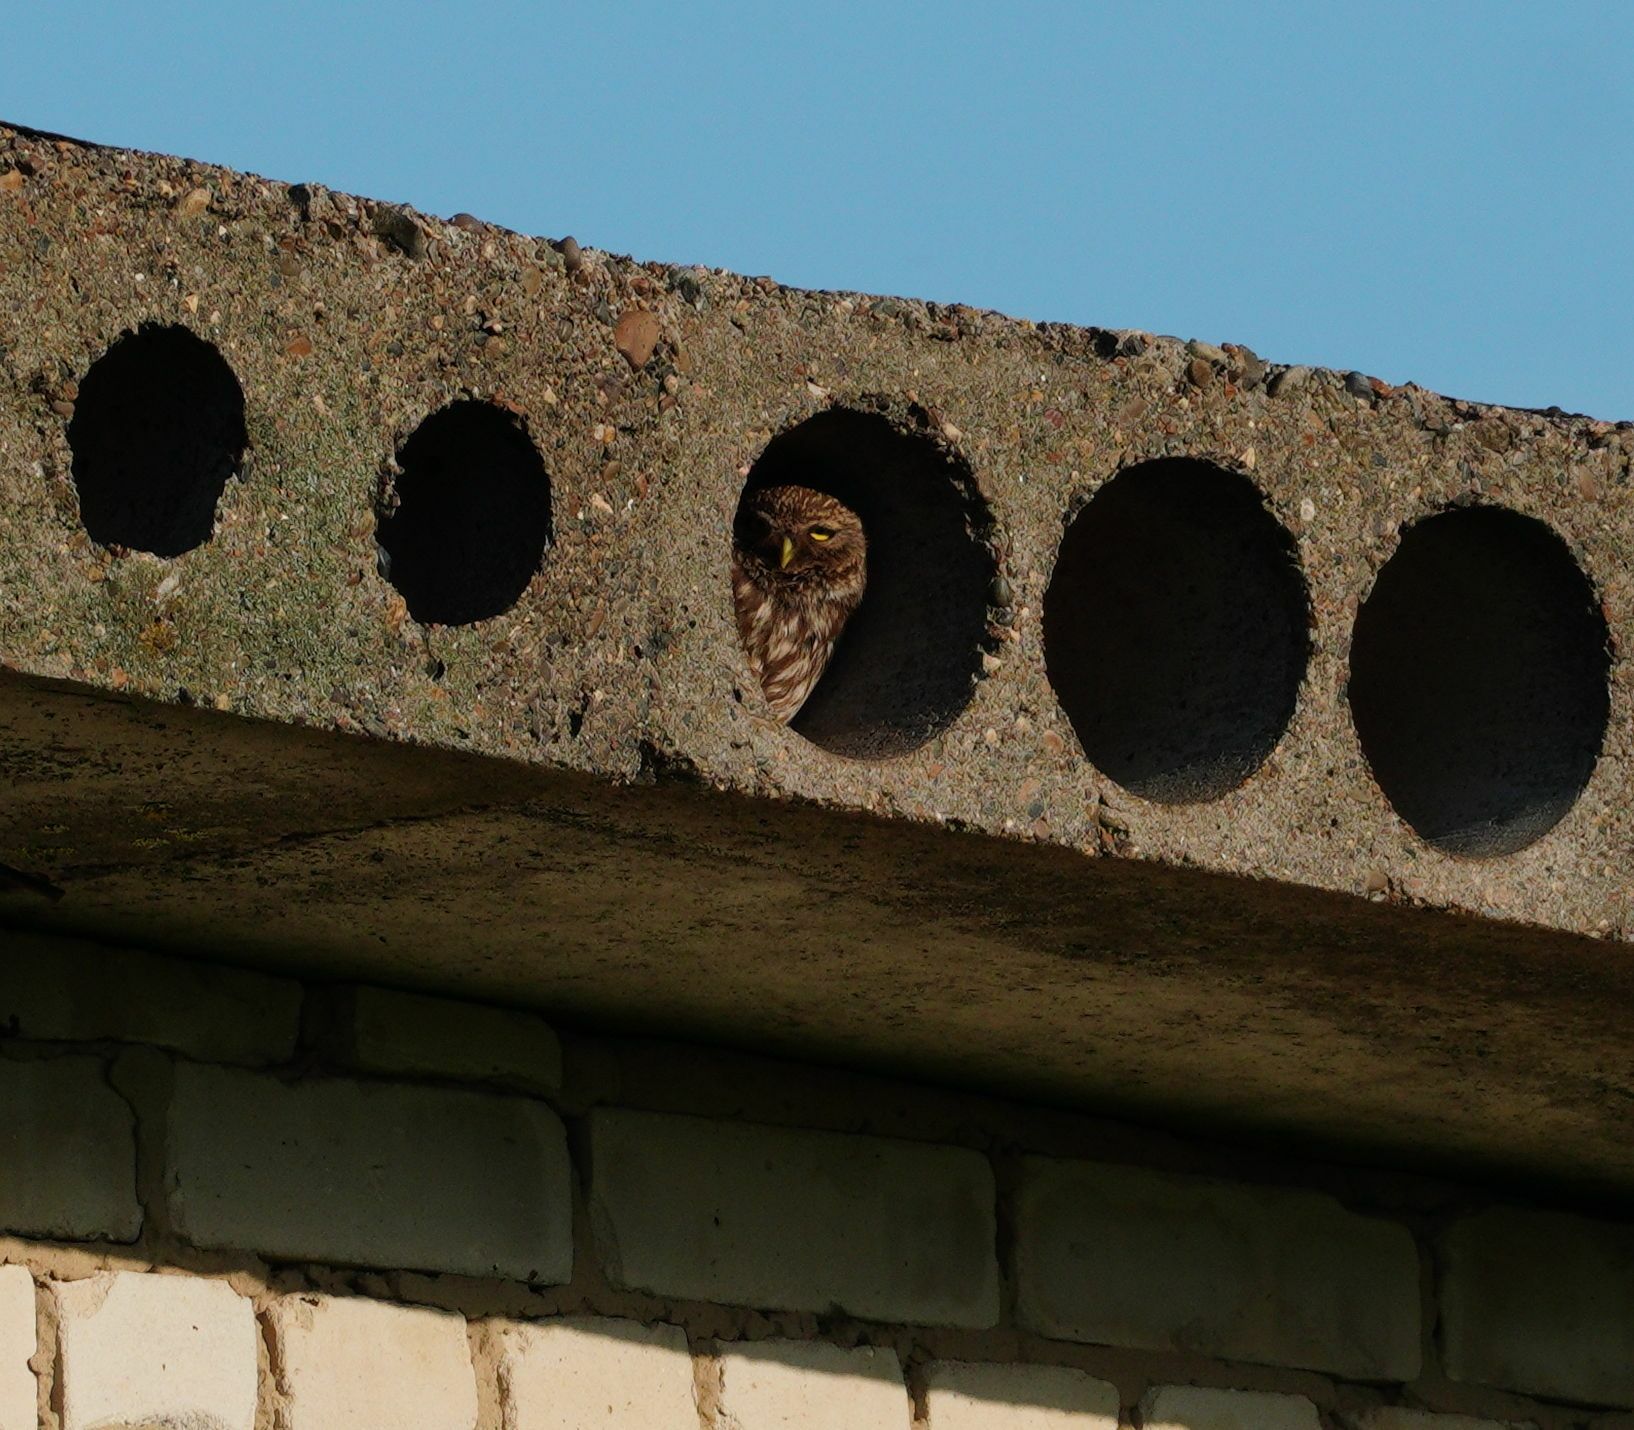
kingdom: Animalia
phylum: Chordata
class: Aves
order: Strigiformes
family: Strigidae
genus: Athene
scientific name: Athene noctua
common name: Little owl
